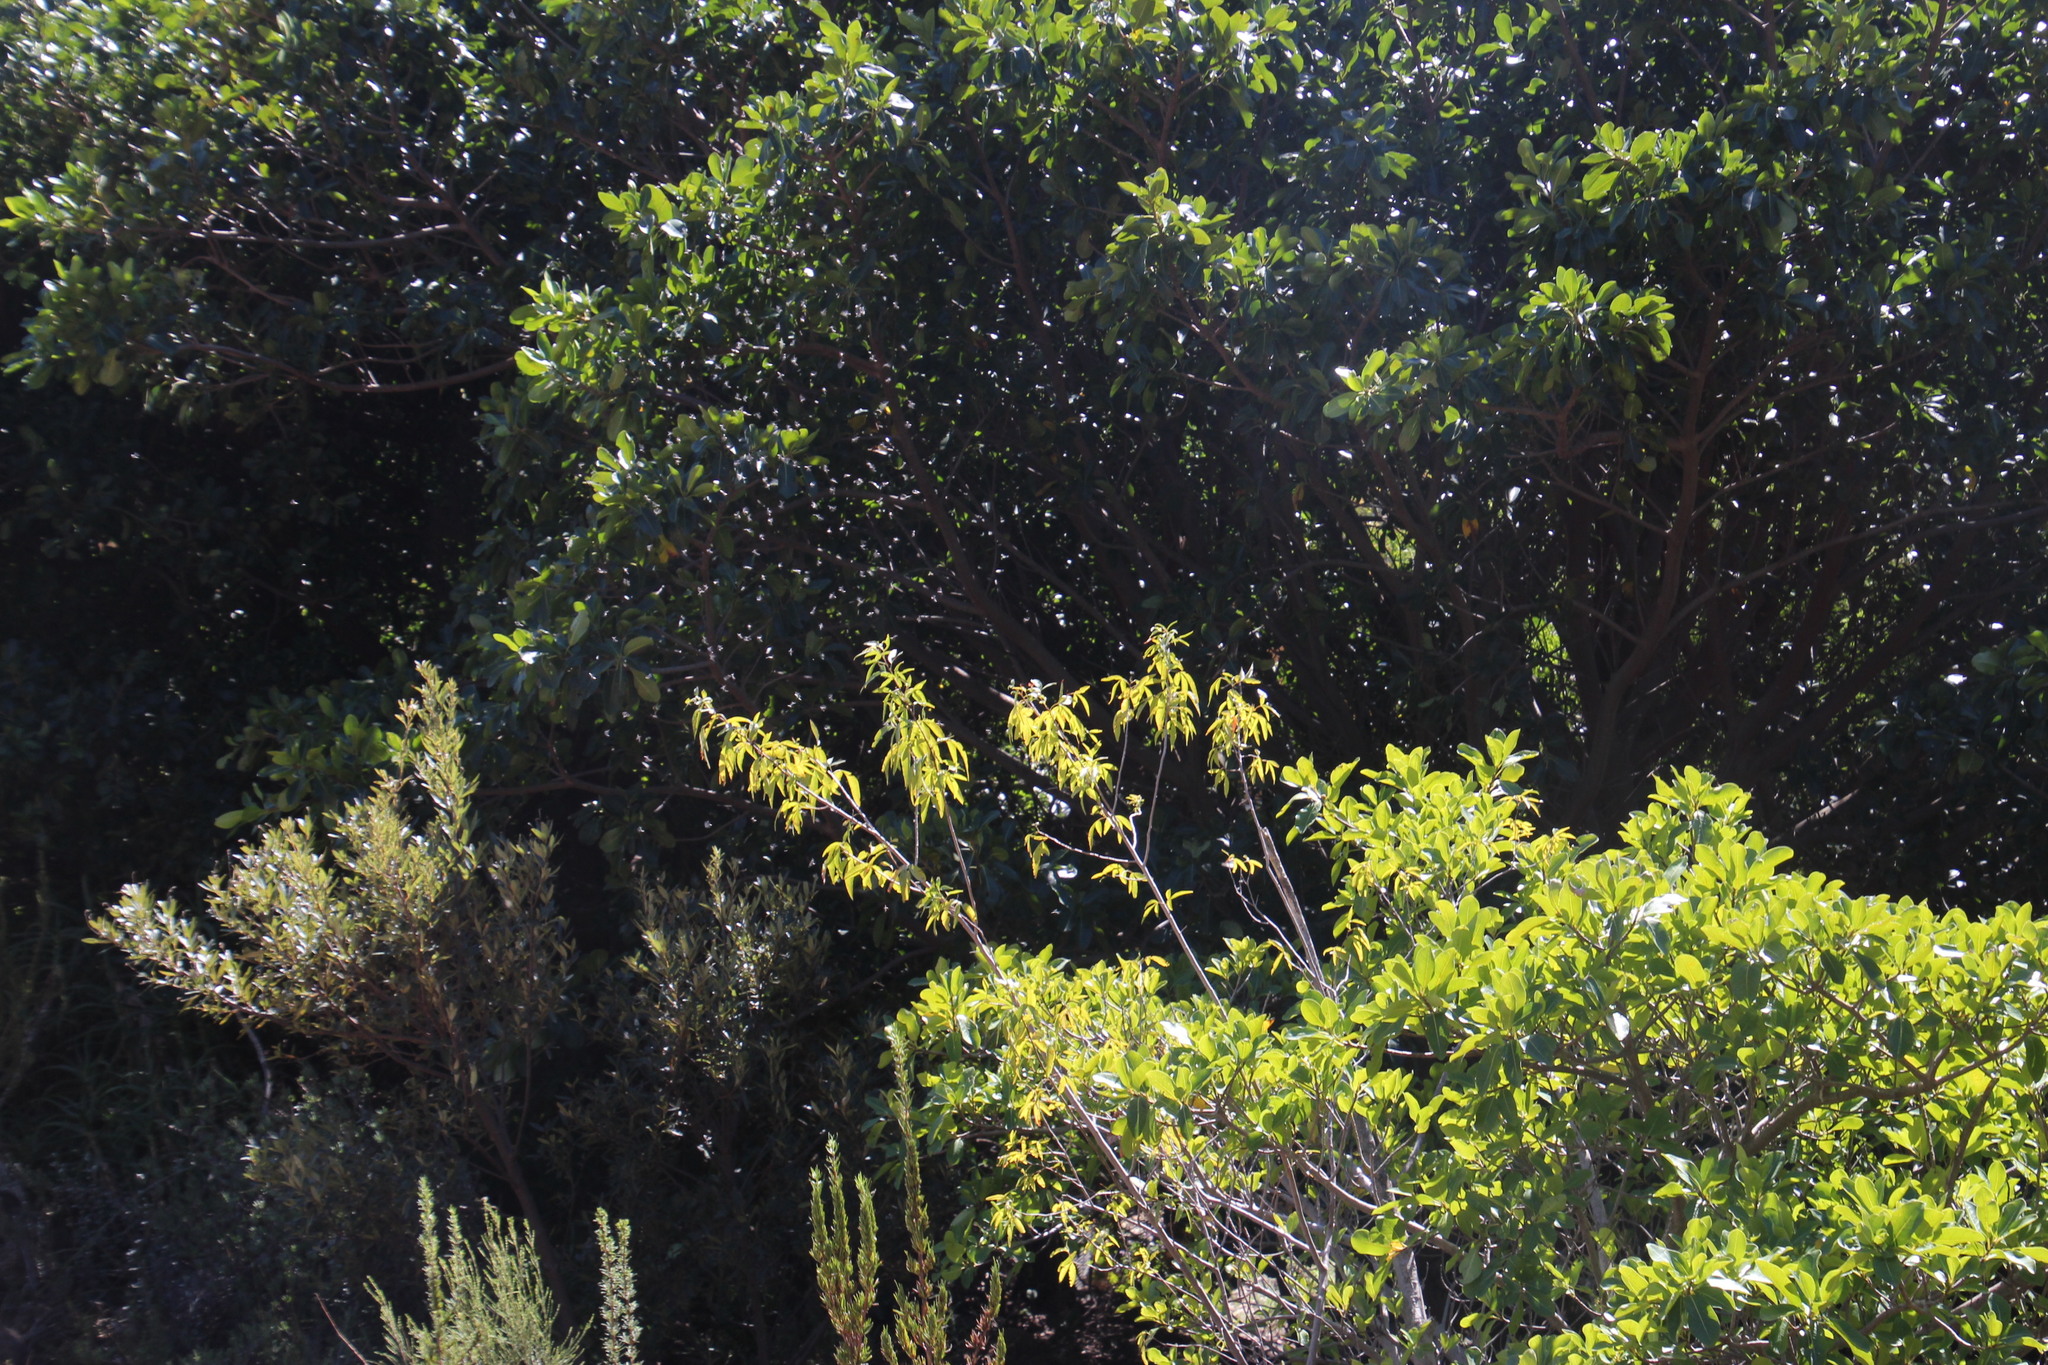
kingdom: Animalia
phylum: Arthropoda
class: Insecta
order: Hymenoptera
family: Formicidae
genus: Solenopsis
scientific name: Solenopsis punctaticeps
